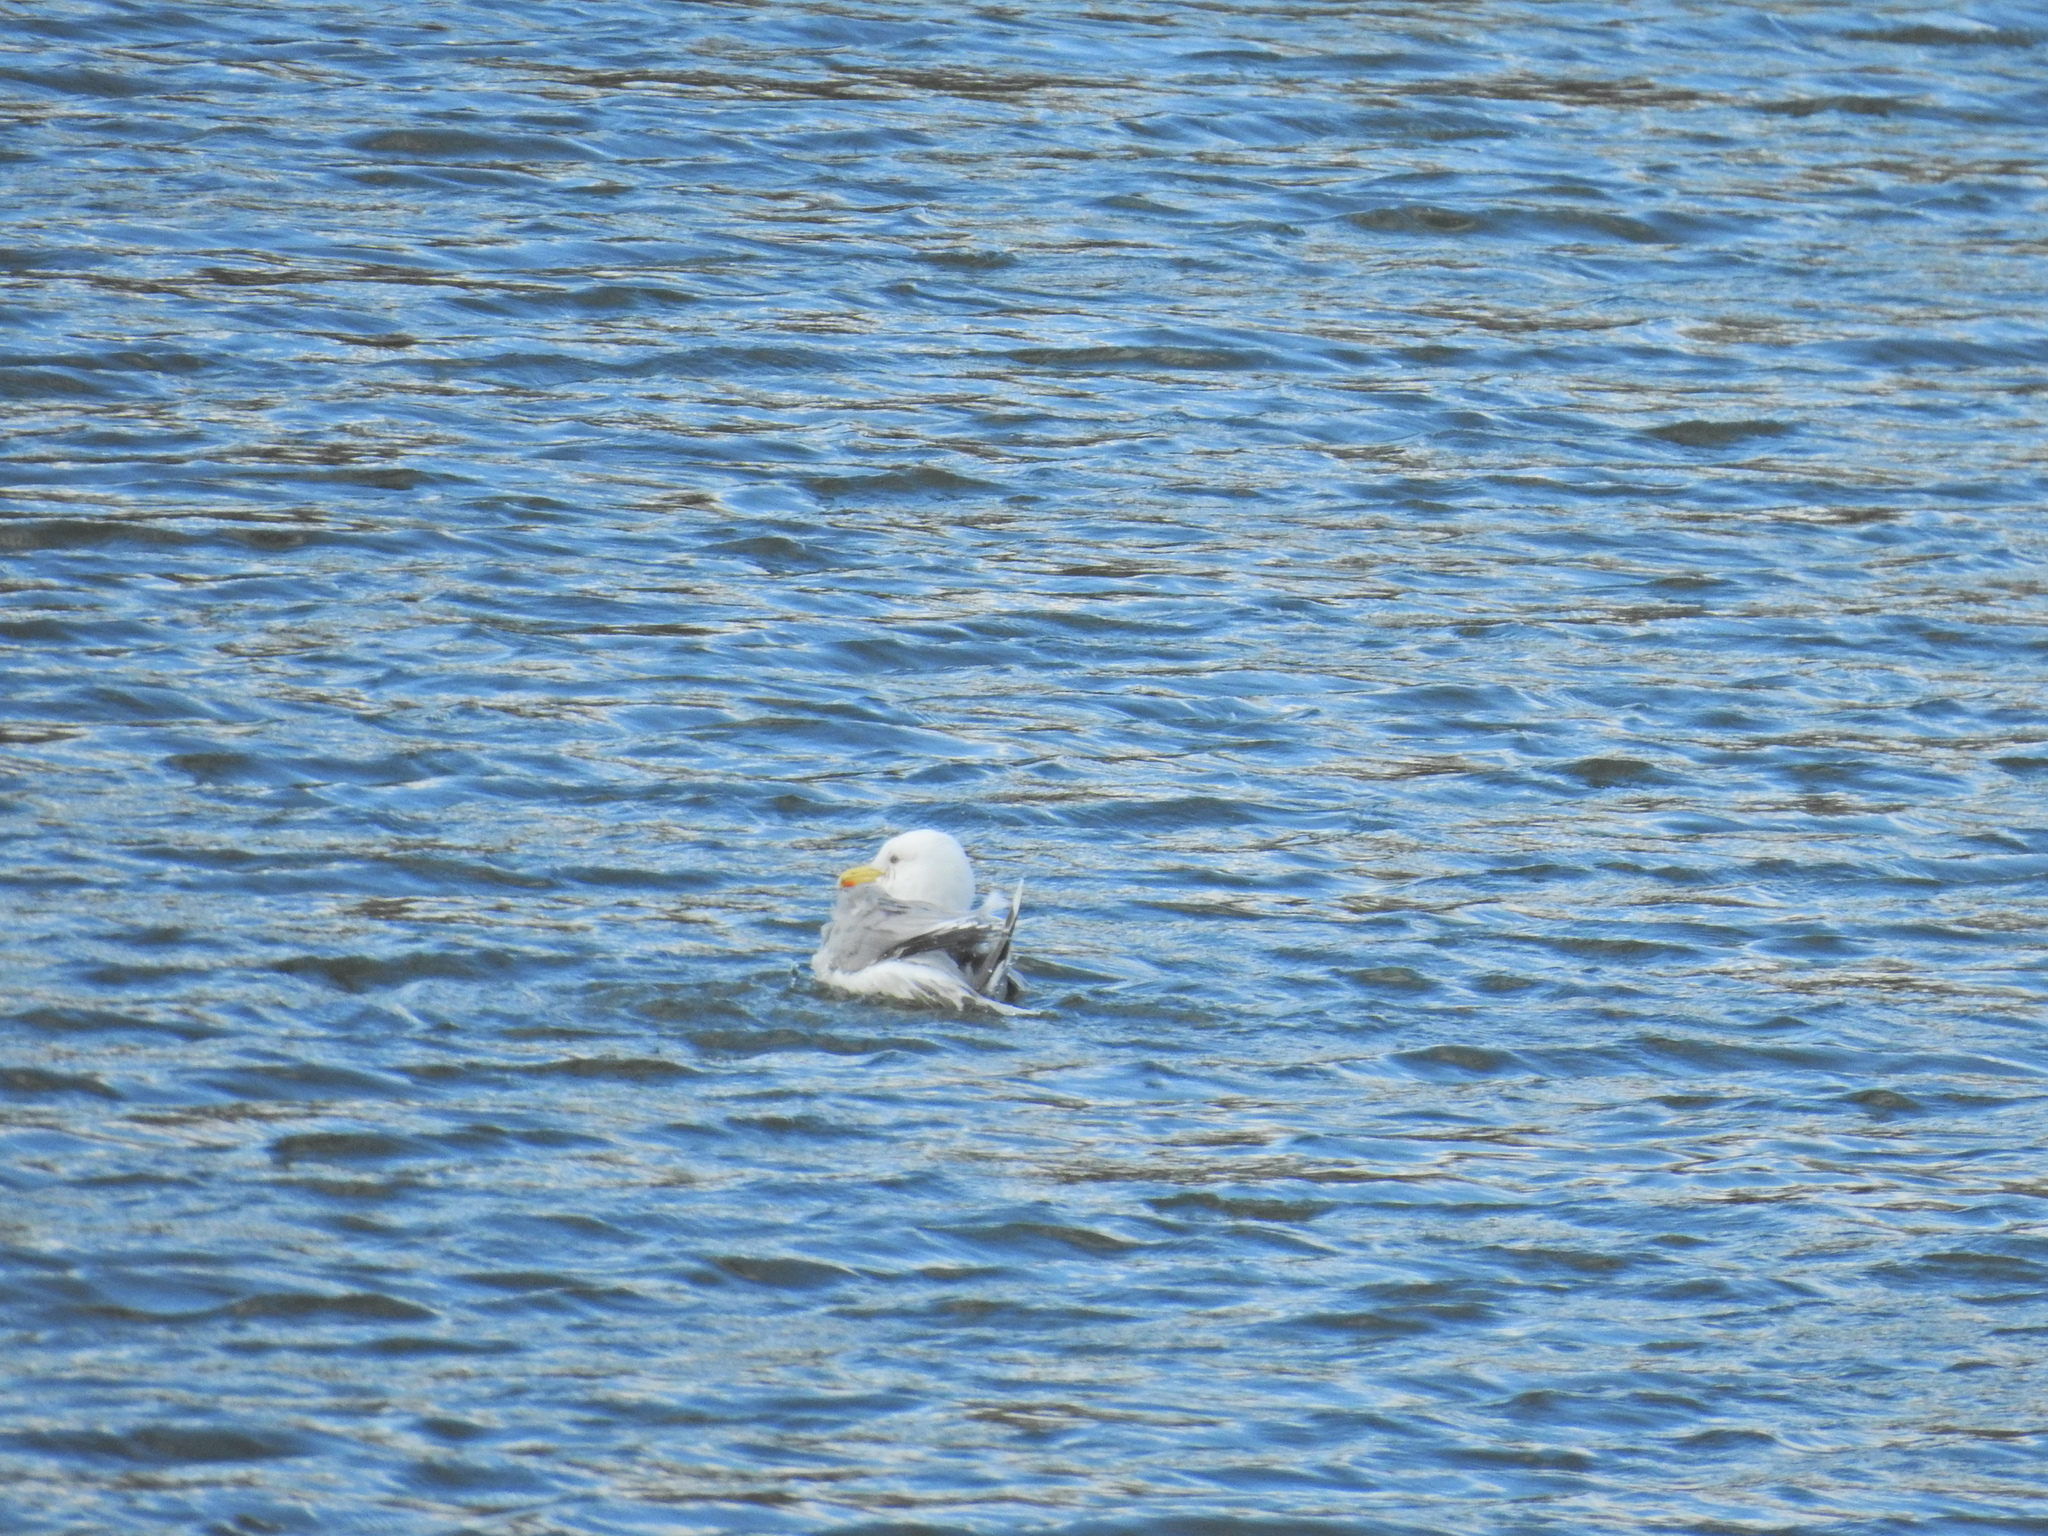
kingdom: Animalia
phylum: Chordata
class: Aves
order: Charadriiformes
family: Laridae
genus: Larus
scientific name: Larus argentatus
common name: Herring gull
